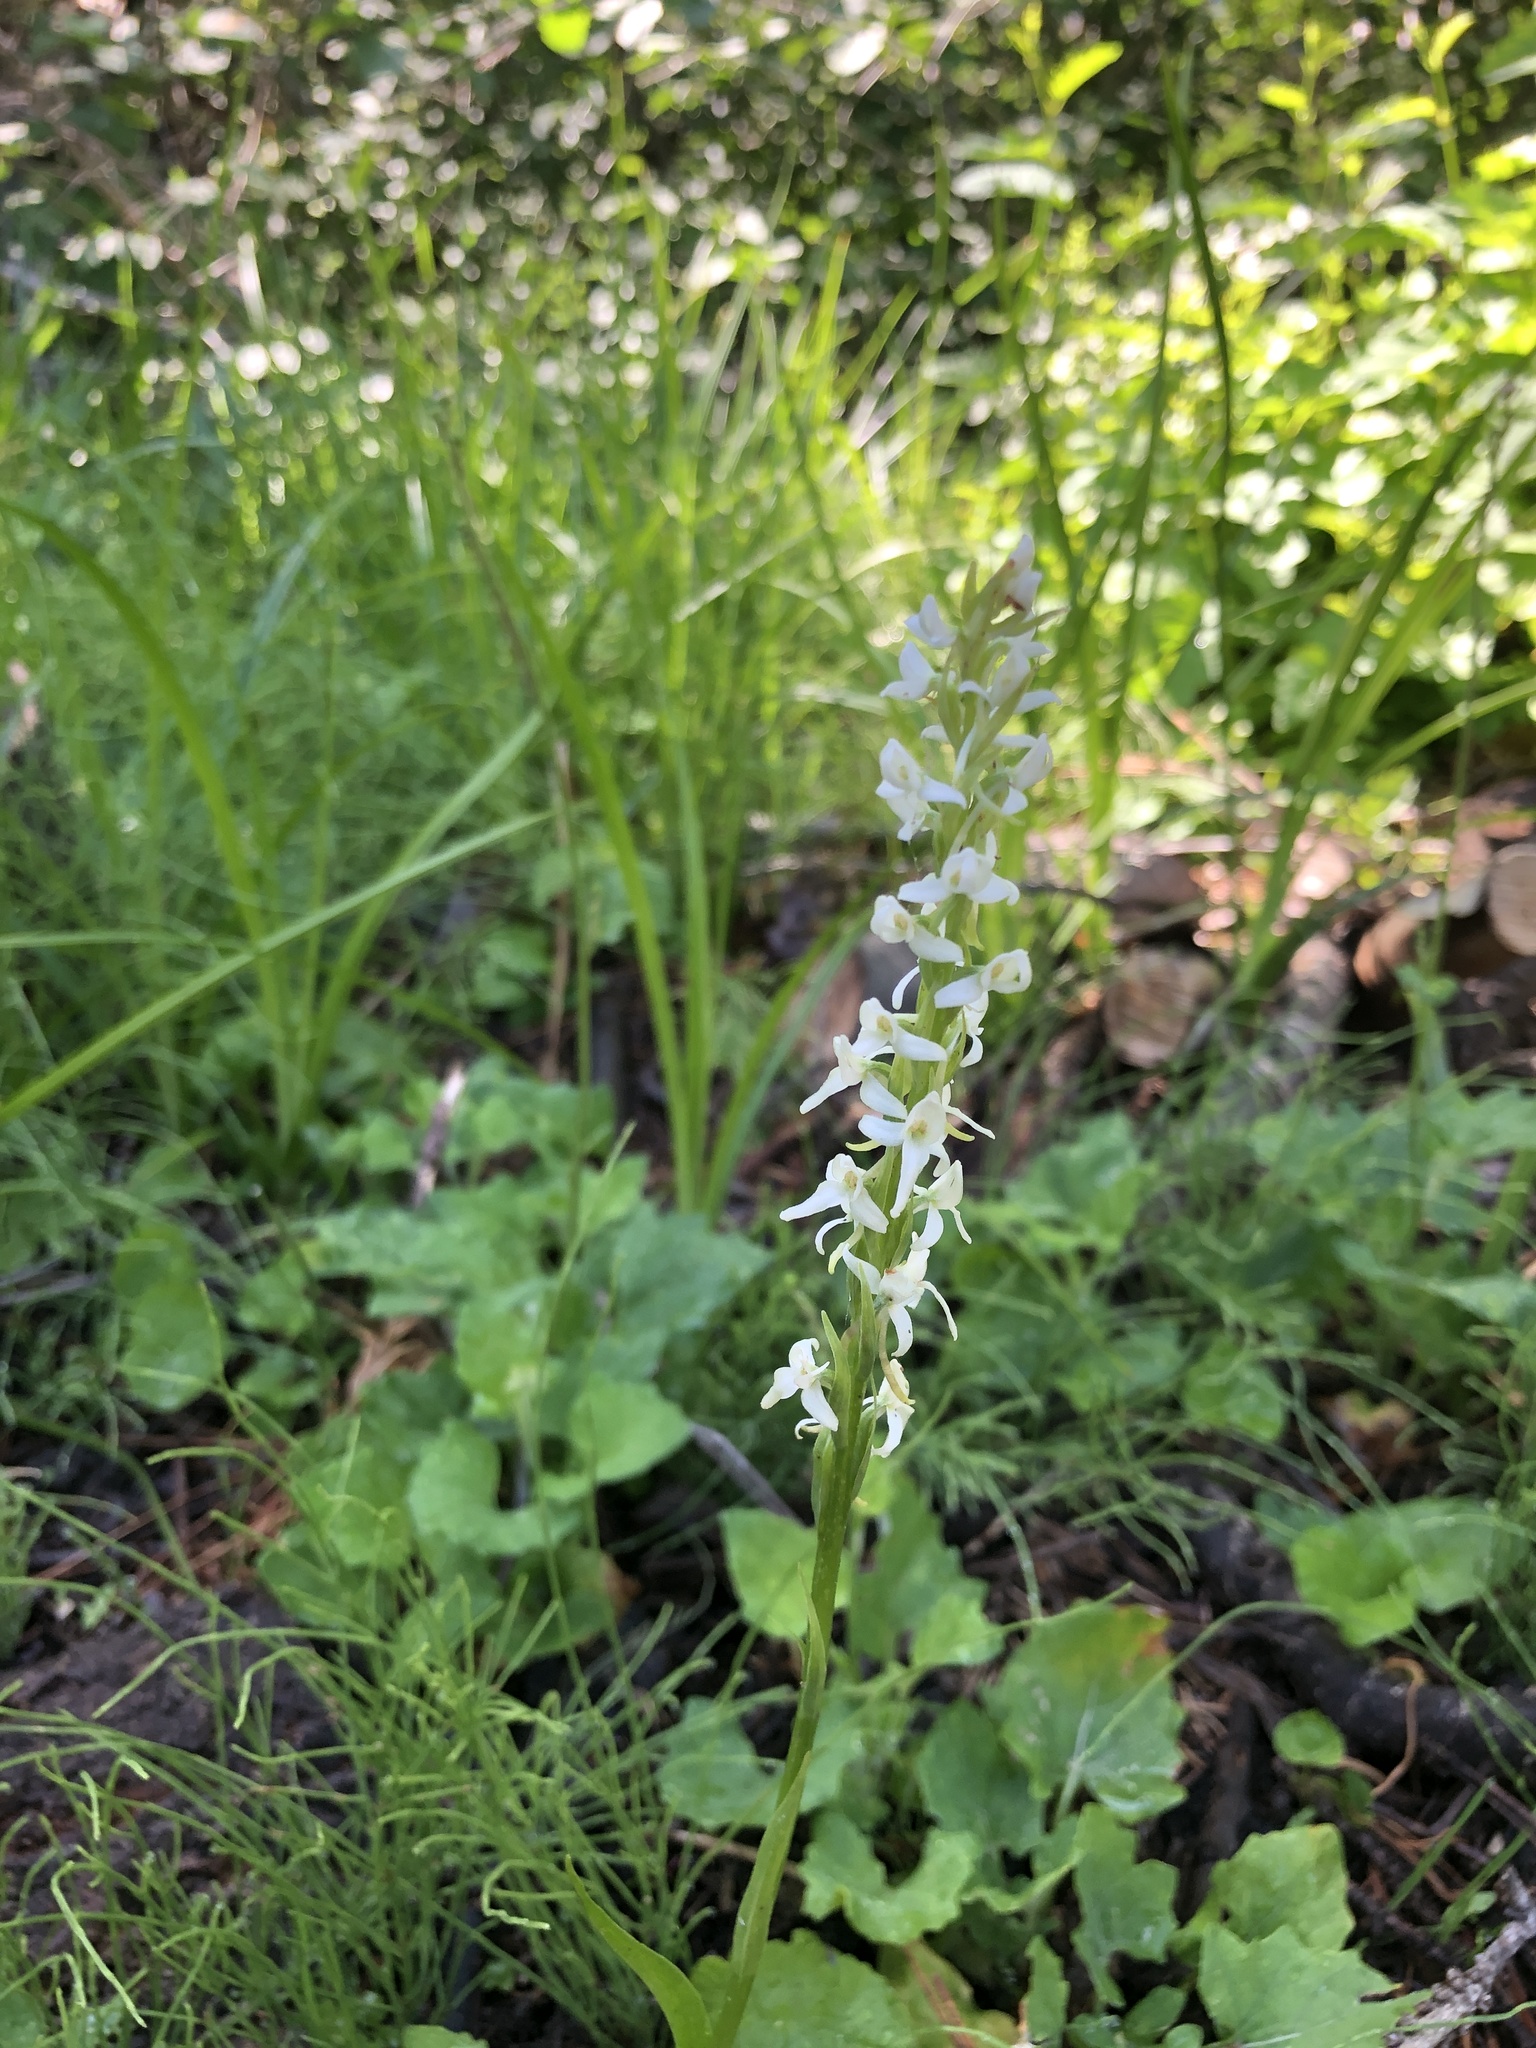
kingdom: Plantae
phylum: Tracheophyta
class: Liliopsida
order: Asparagales
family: Orchidaceae
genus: Platanthera
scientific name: Platanthera dilatata
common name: Bog candles
